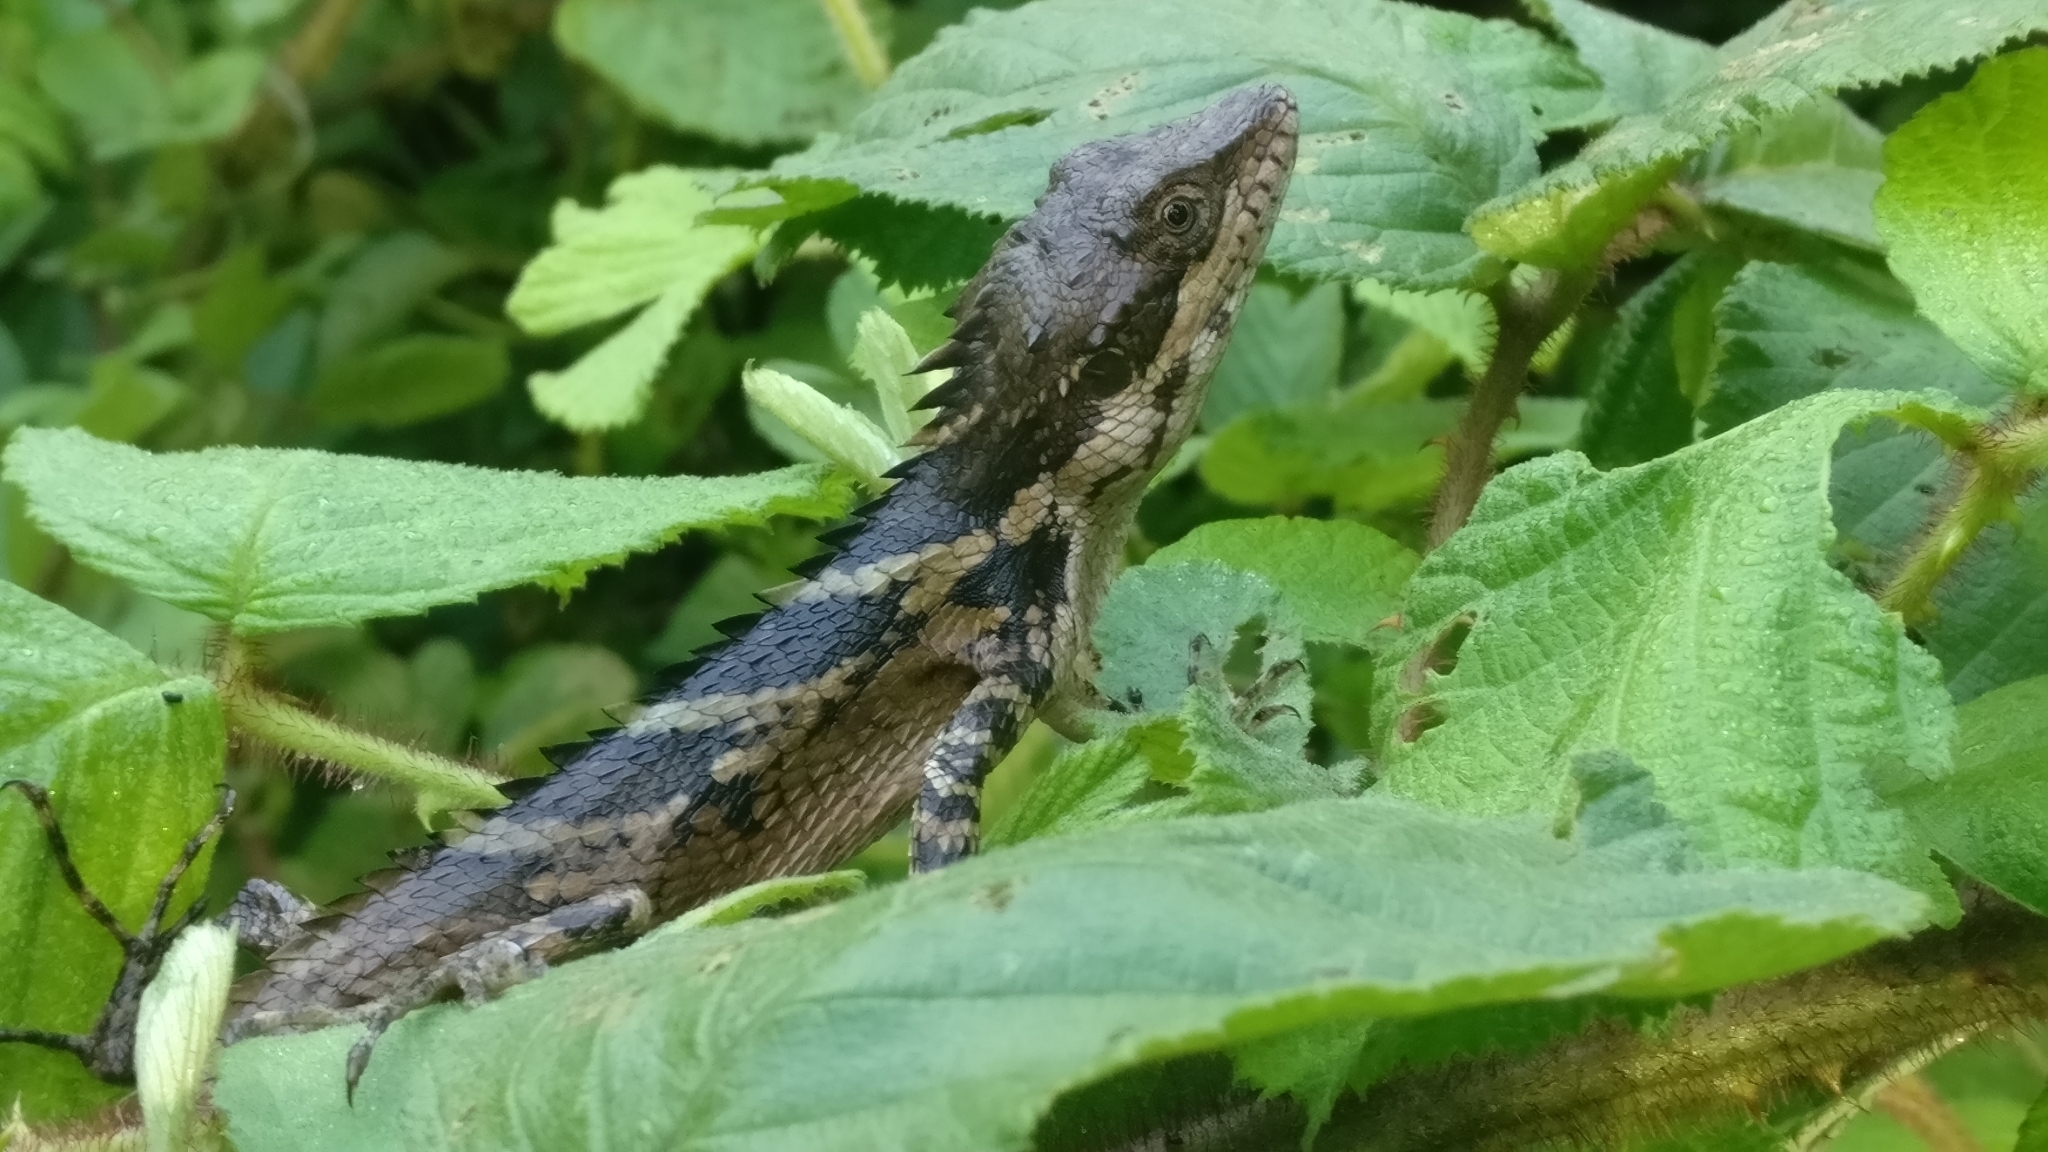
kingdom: Animalia
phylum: Chordata
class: Squamata
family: Agamidae
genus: Salea
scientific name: Salea anamallayana
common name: Anaimalai spiny lizard
